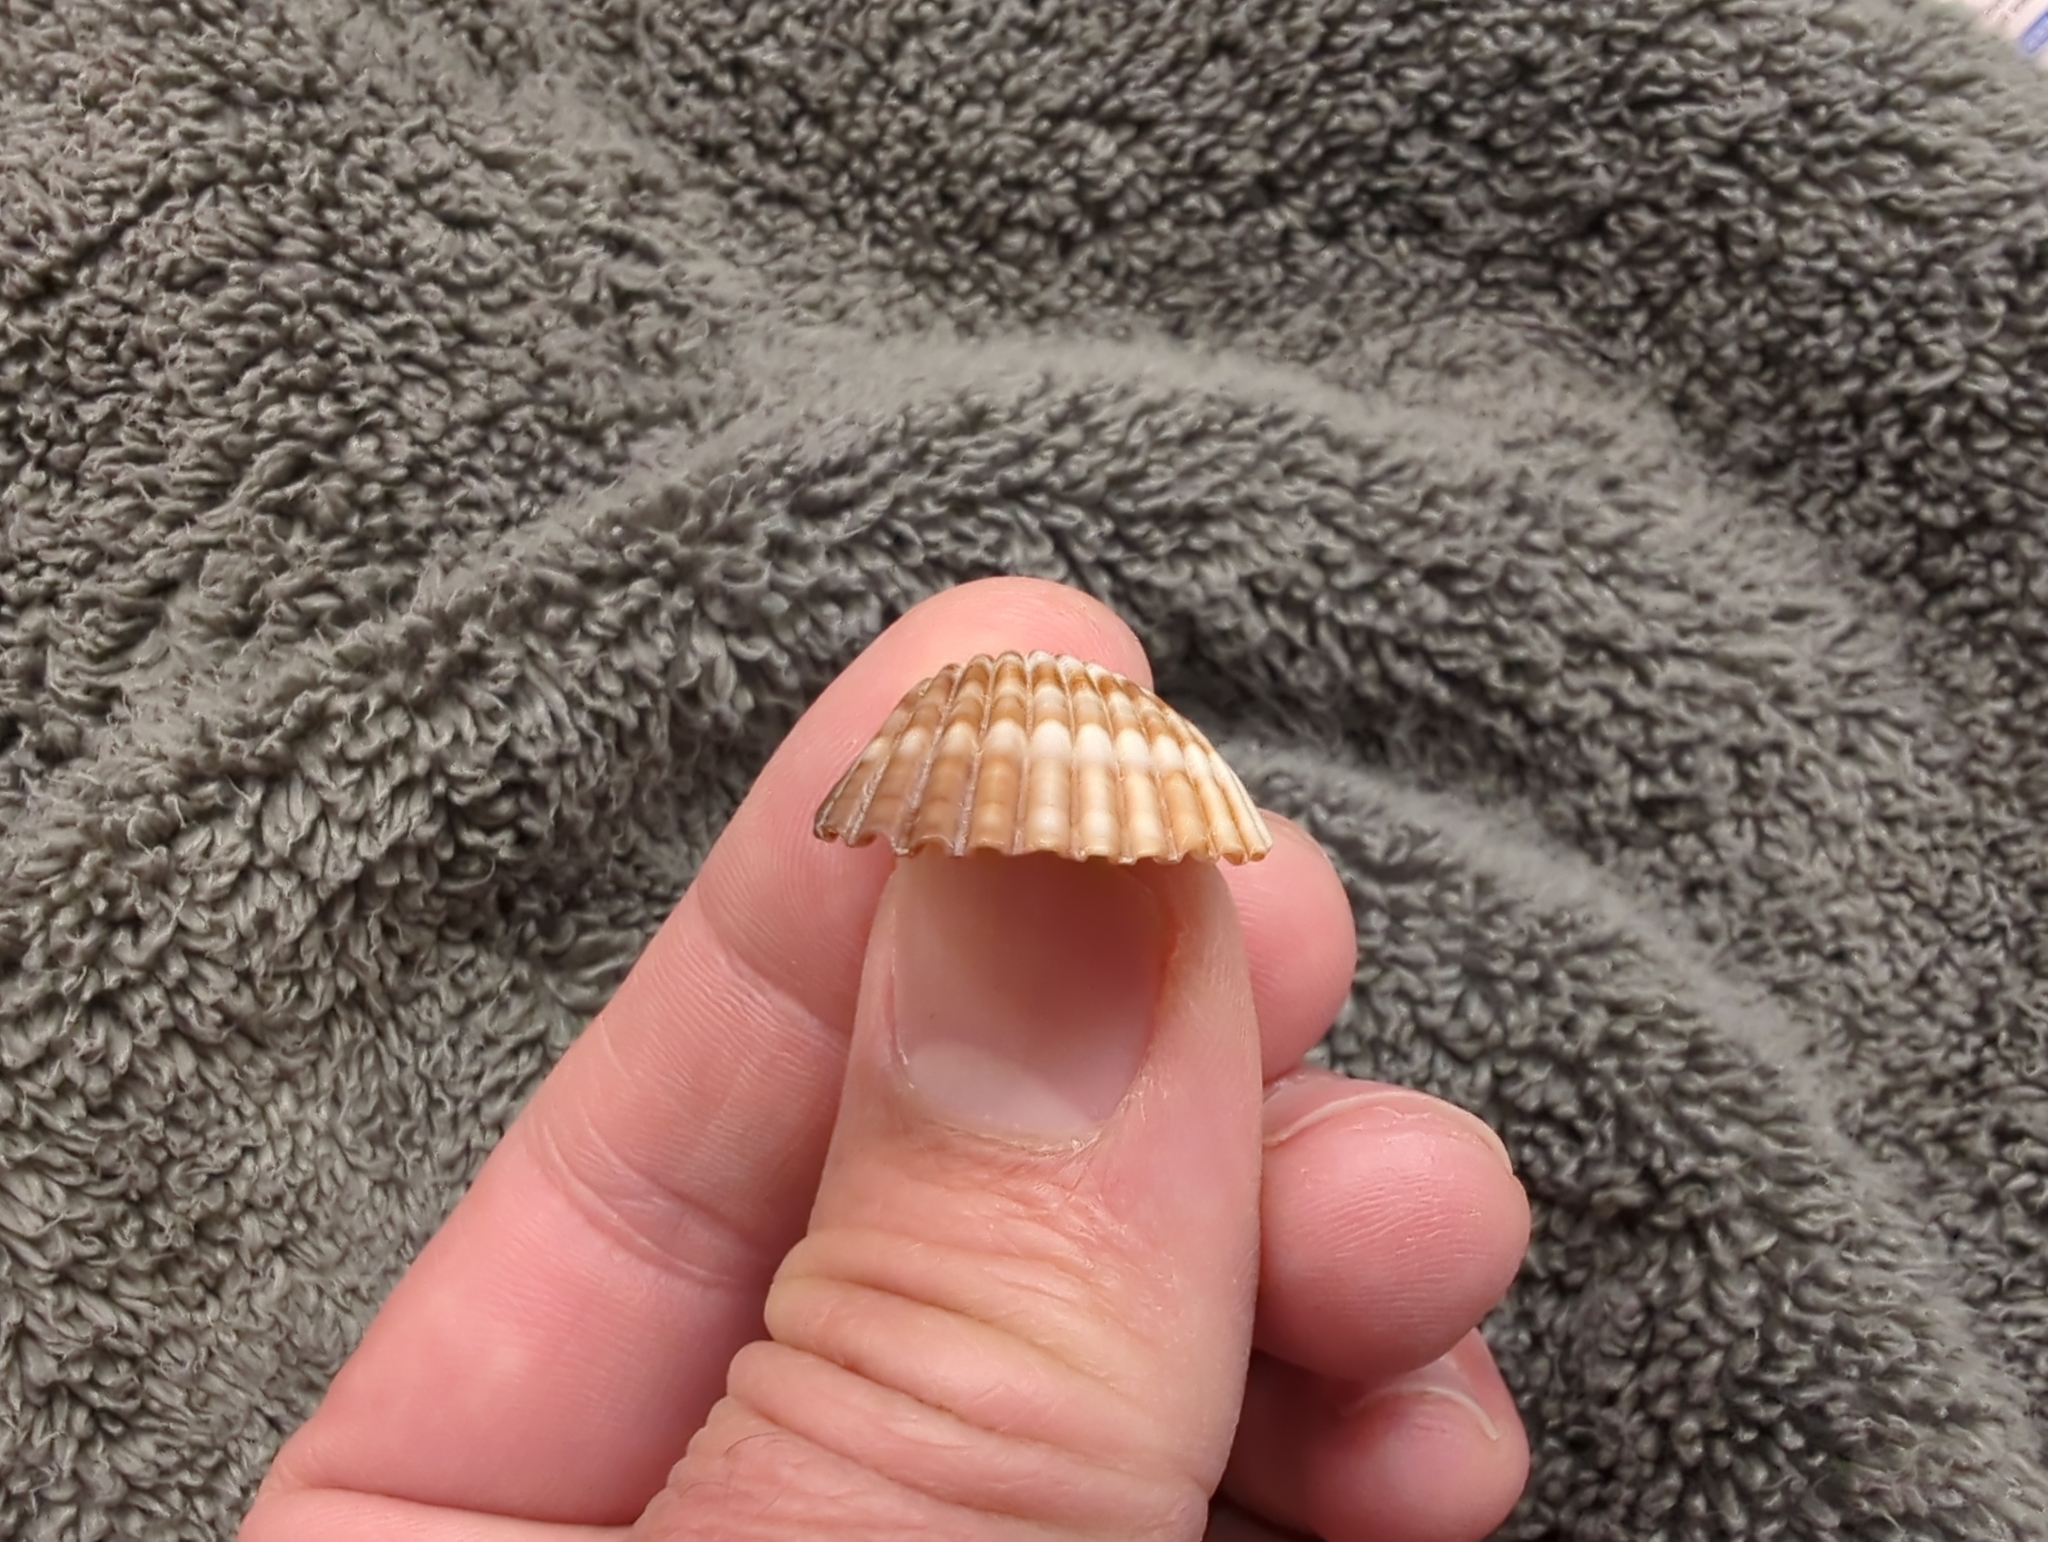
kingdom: Animalia
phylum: Mollusca
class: Bivalvia
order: Cardiida
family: Cardiidae
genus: Trachycardium
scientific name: Trachycardium procerum
